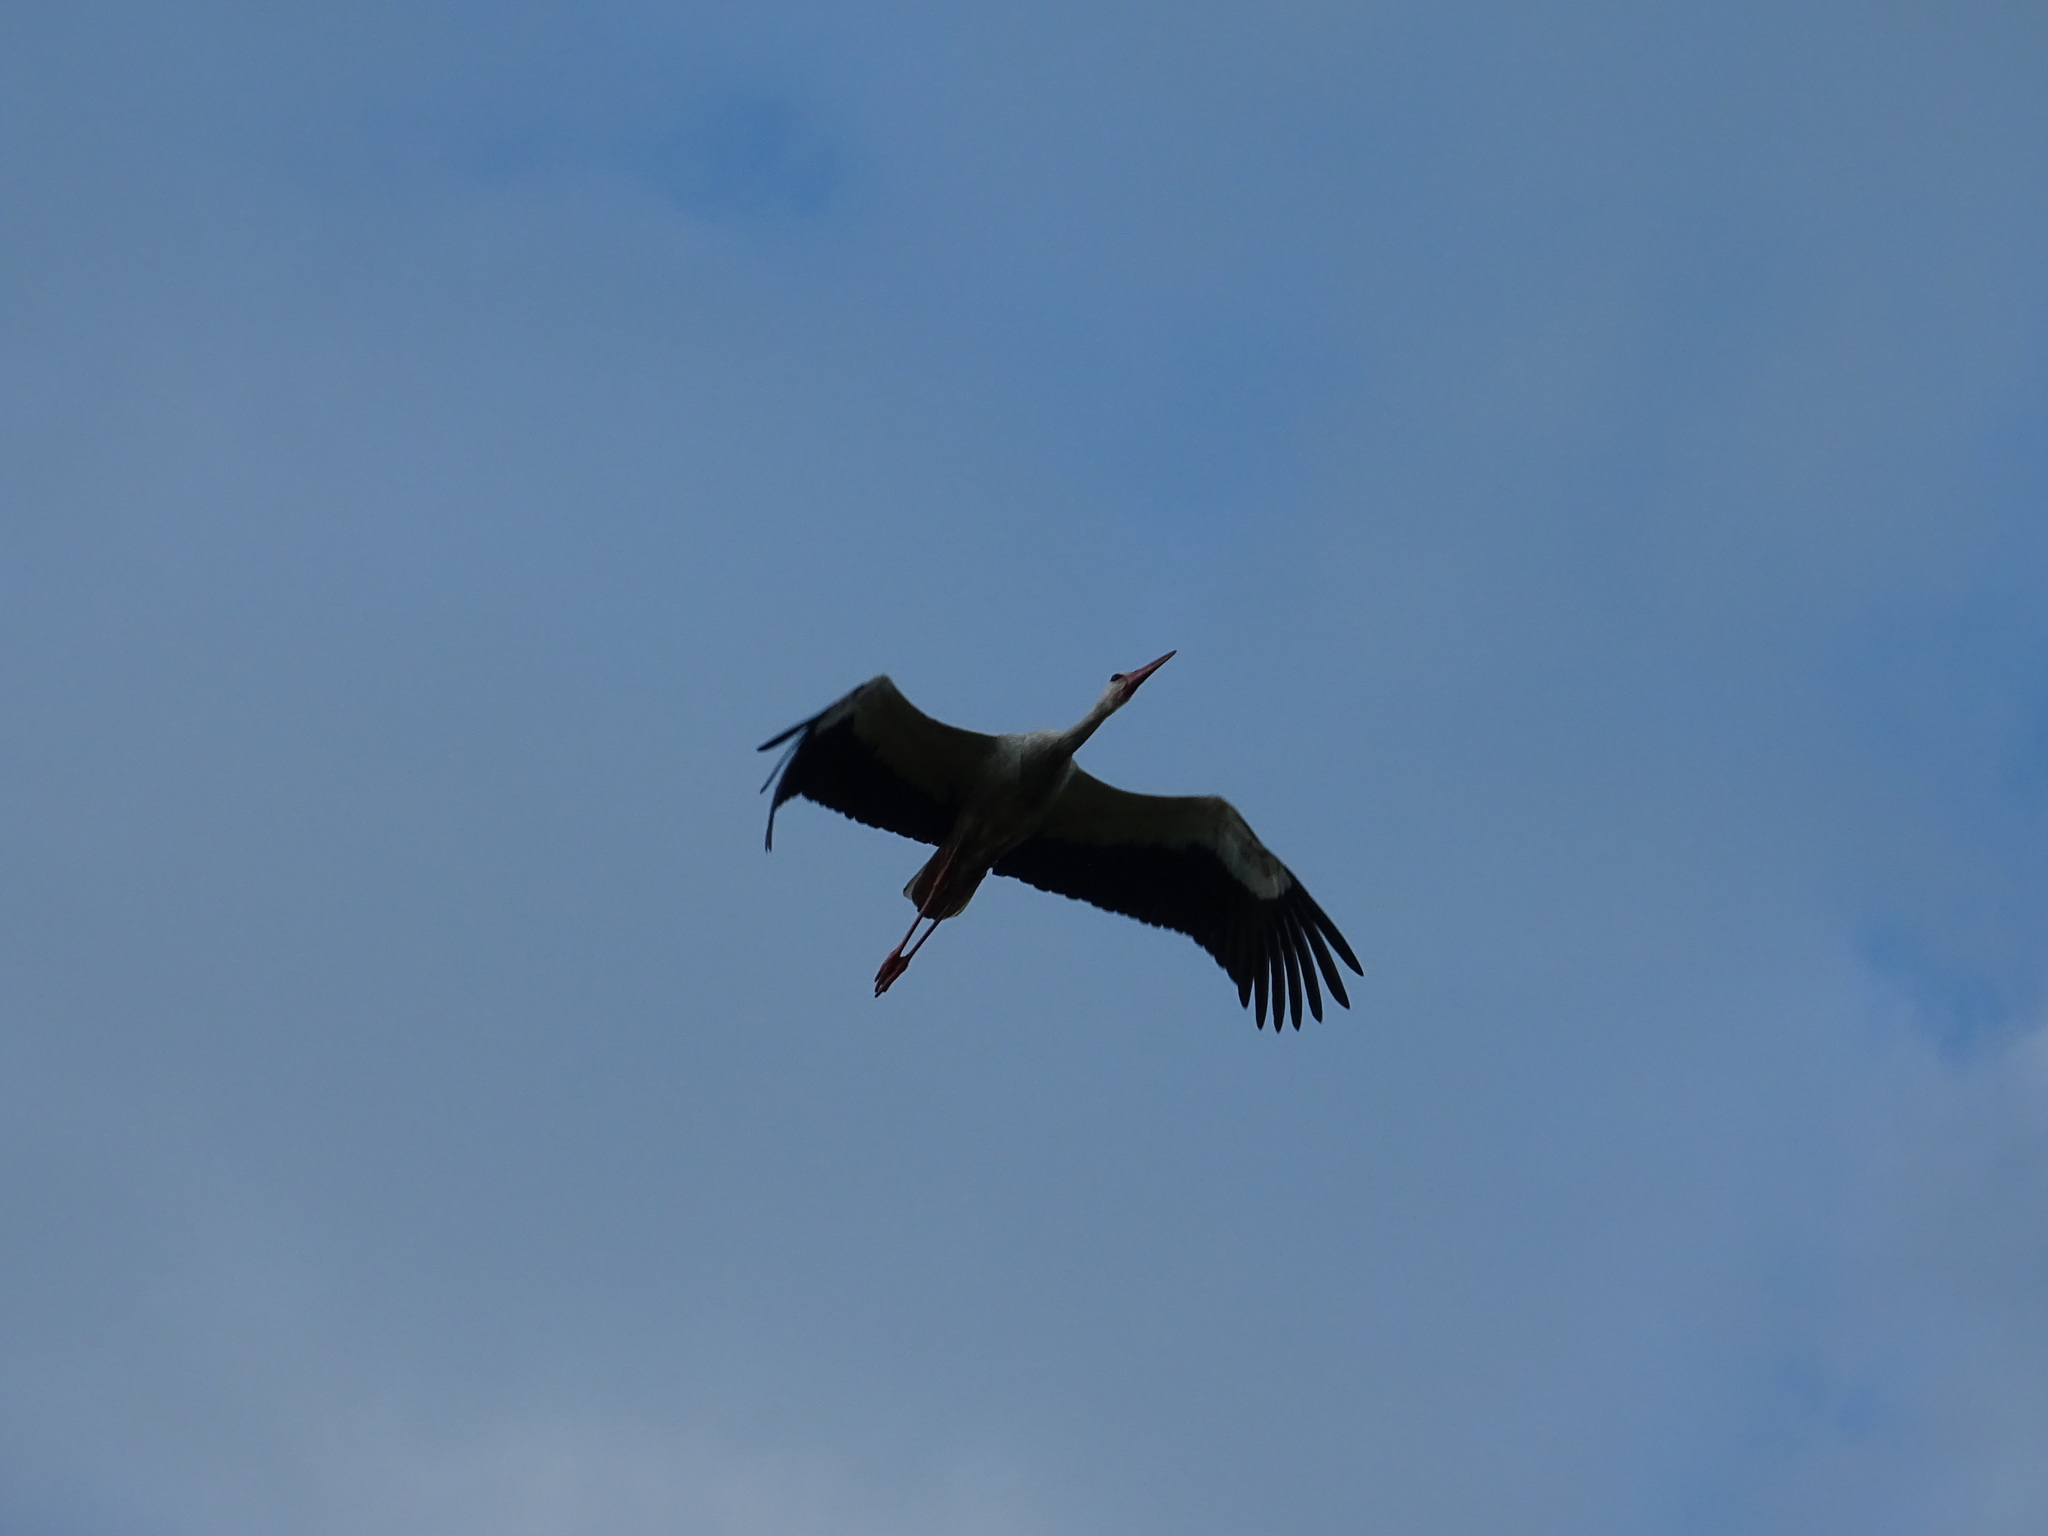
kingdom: Animalia
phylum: Chordata
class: Aves
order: Ciconiiformes
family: Ciconiidae
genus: Ciconia
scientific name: Ciconia ciconia
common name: White stork
